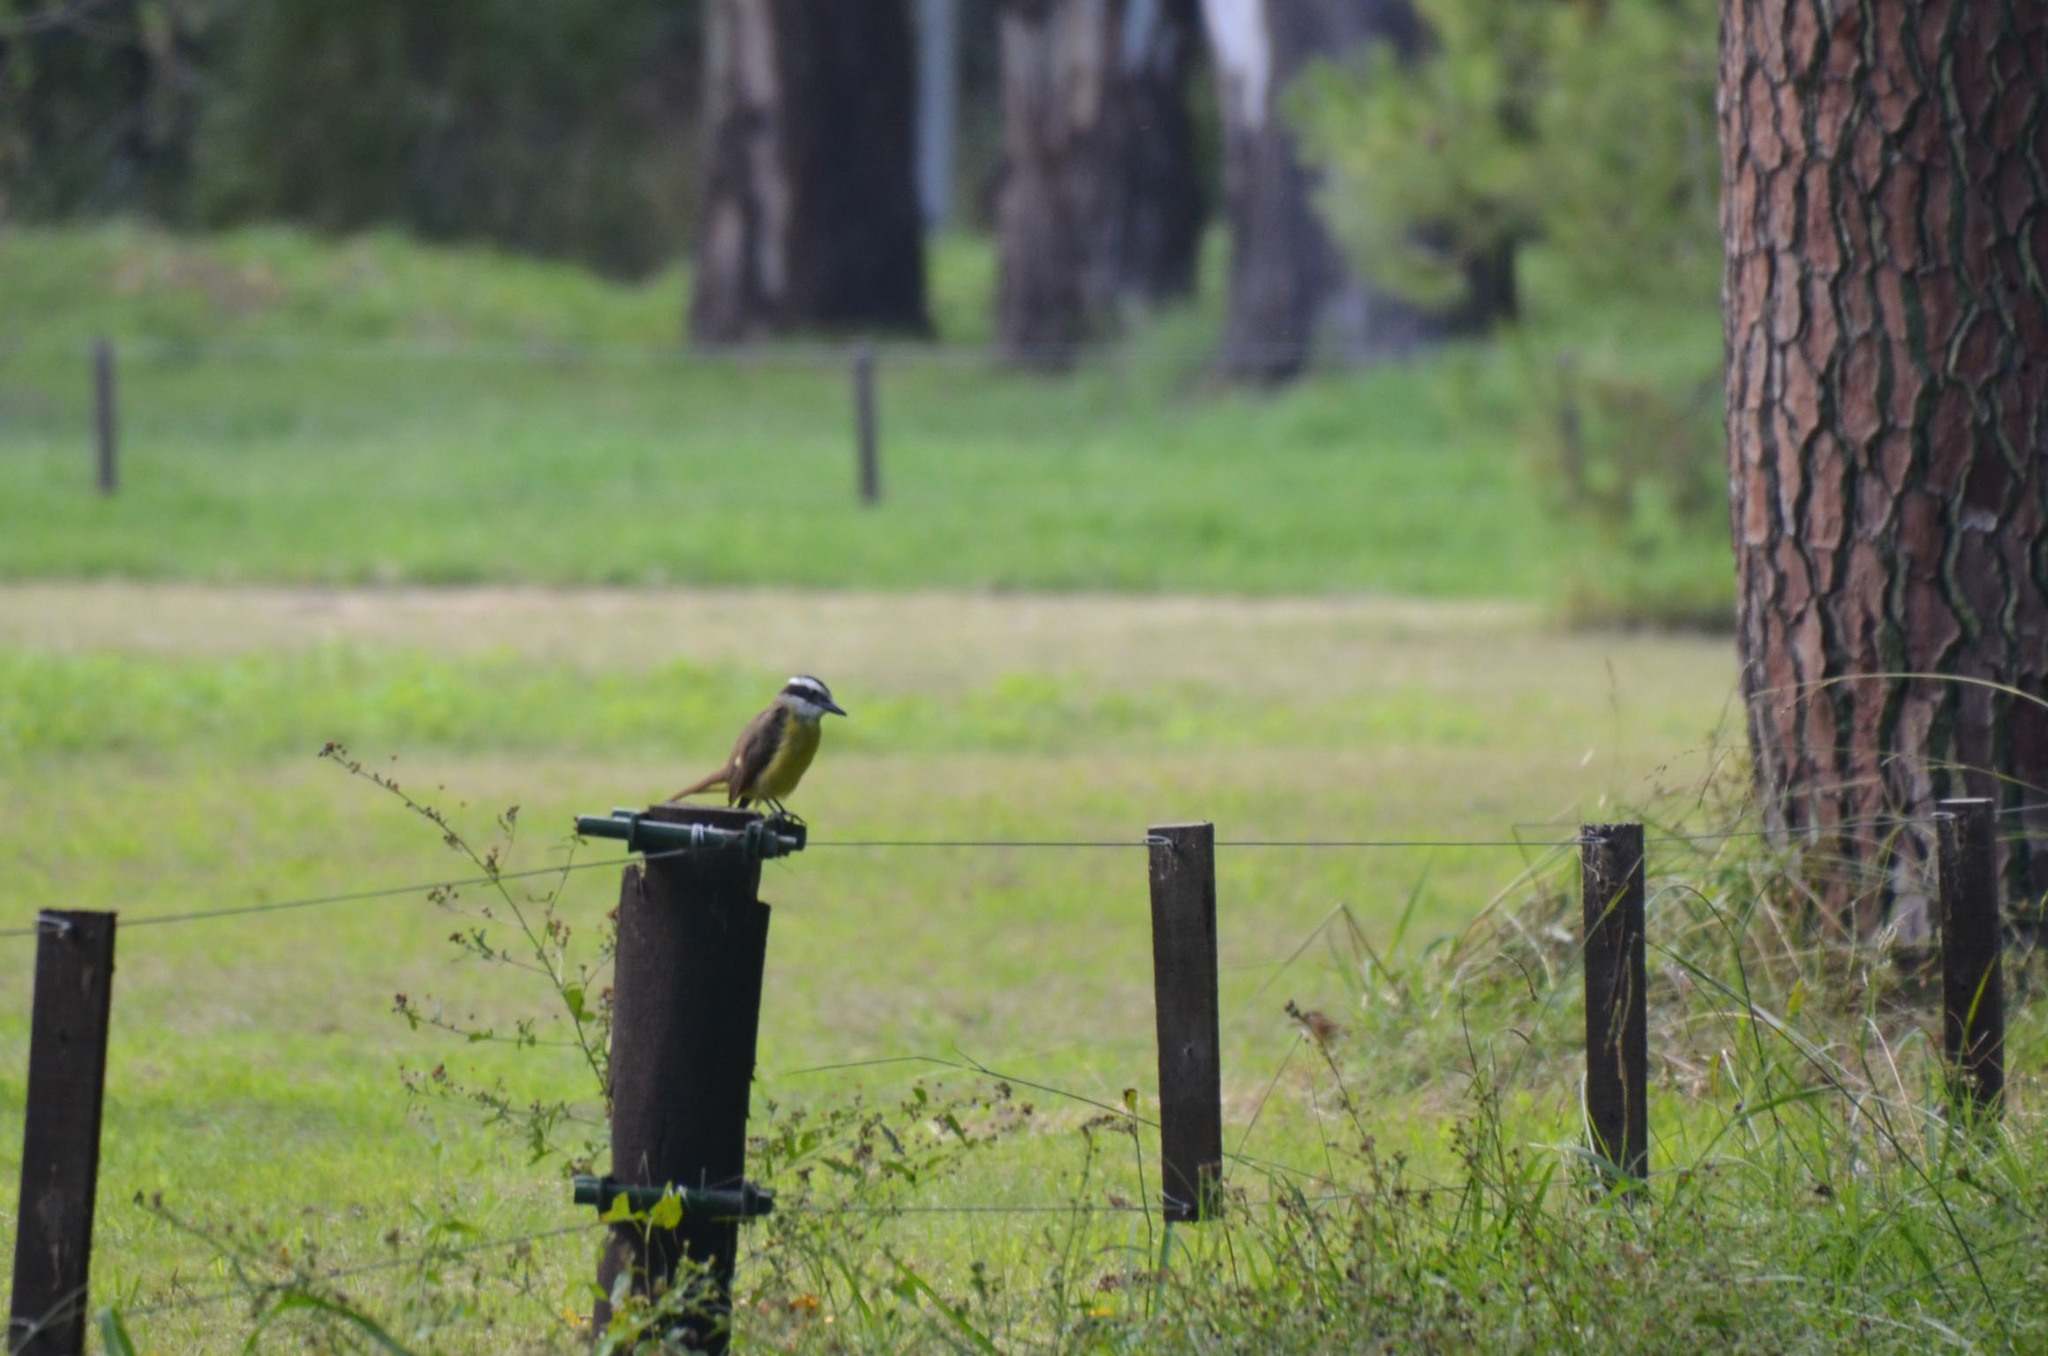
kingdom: Animalia
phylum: Chordata
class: Aves
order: Passeriformes
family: Tyrannidae
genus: Pitangus
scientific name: Pitangus sulphuratus
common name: Great kiskadee
